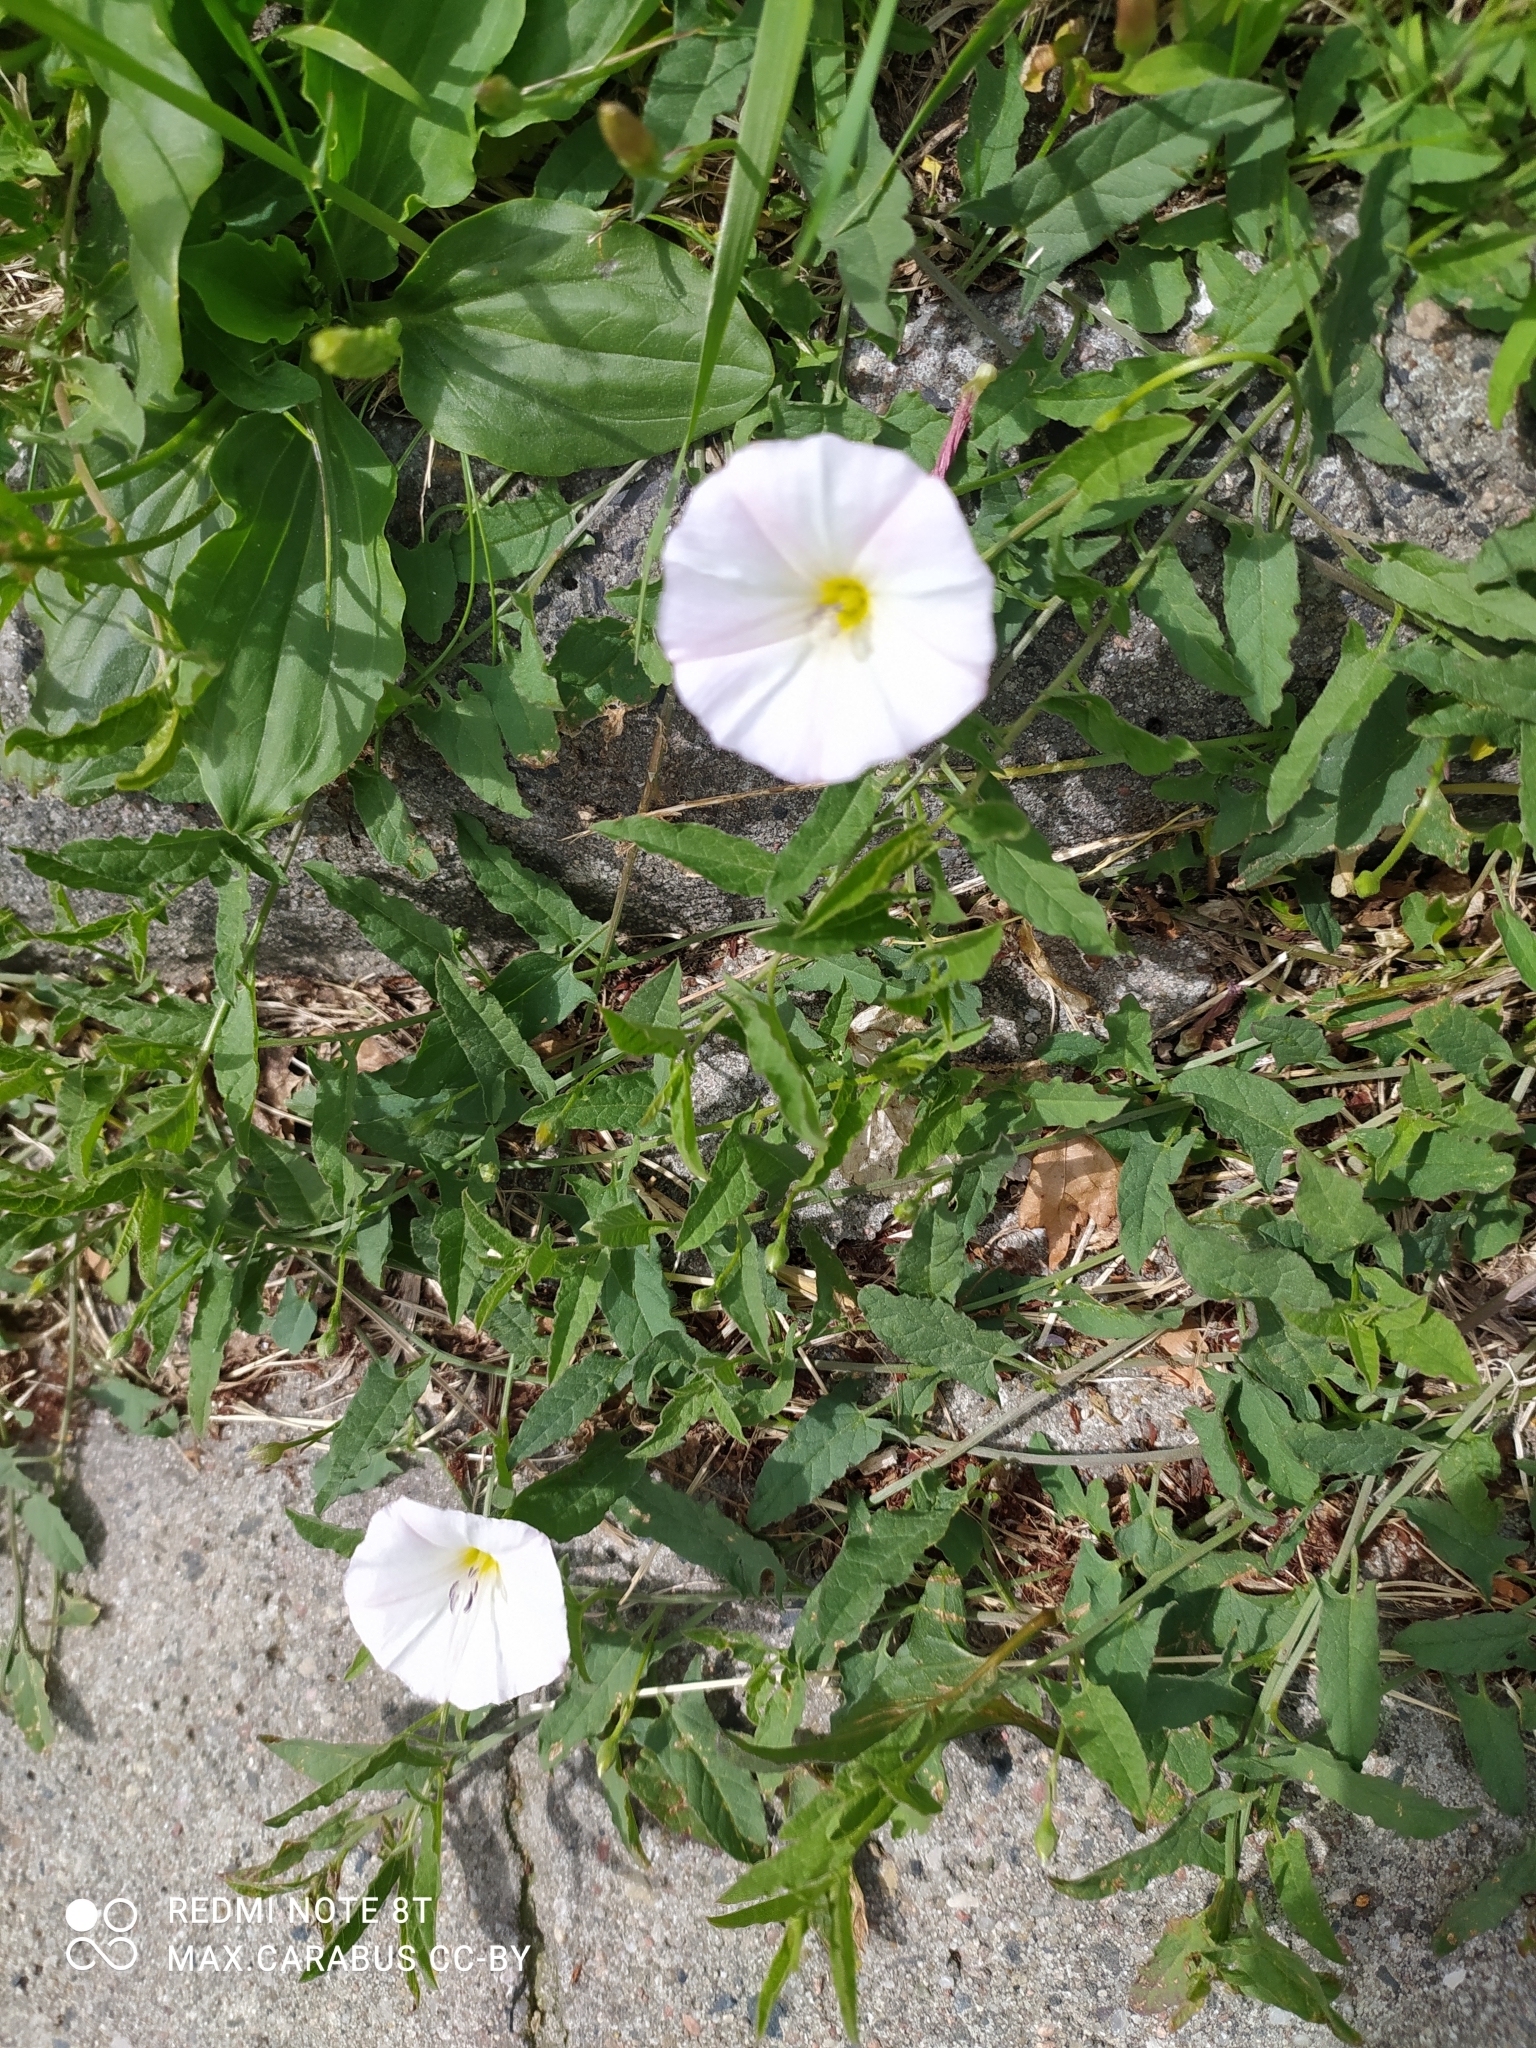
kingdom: Plantae
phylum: Tracheophyta
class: Magnoliopsida
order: Solanales
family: Convolvulaceae
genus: Convolvulus
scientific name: Convolvulus arvensis
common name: Field bindweed
